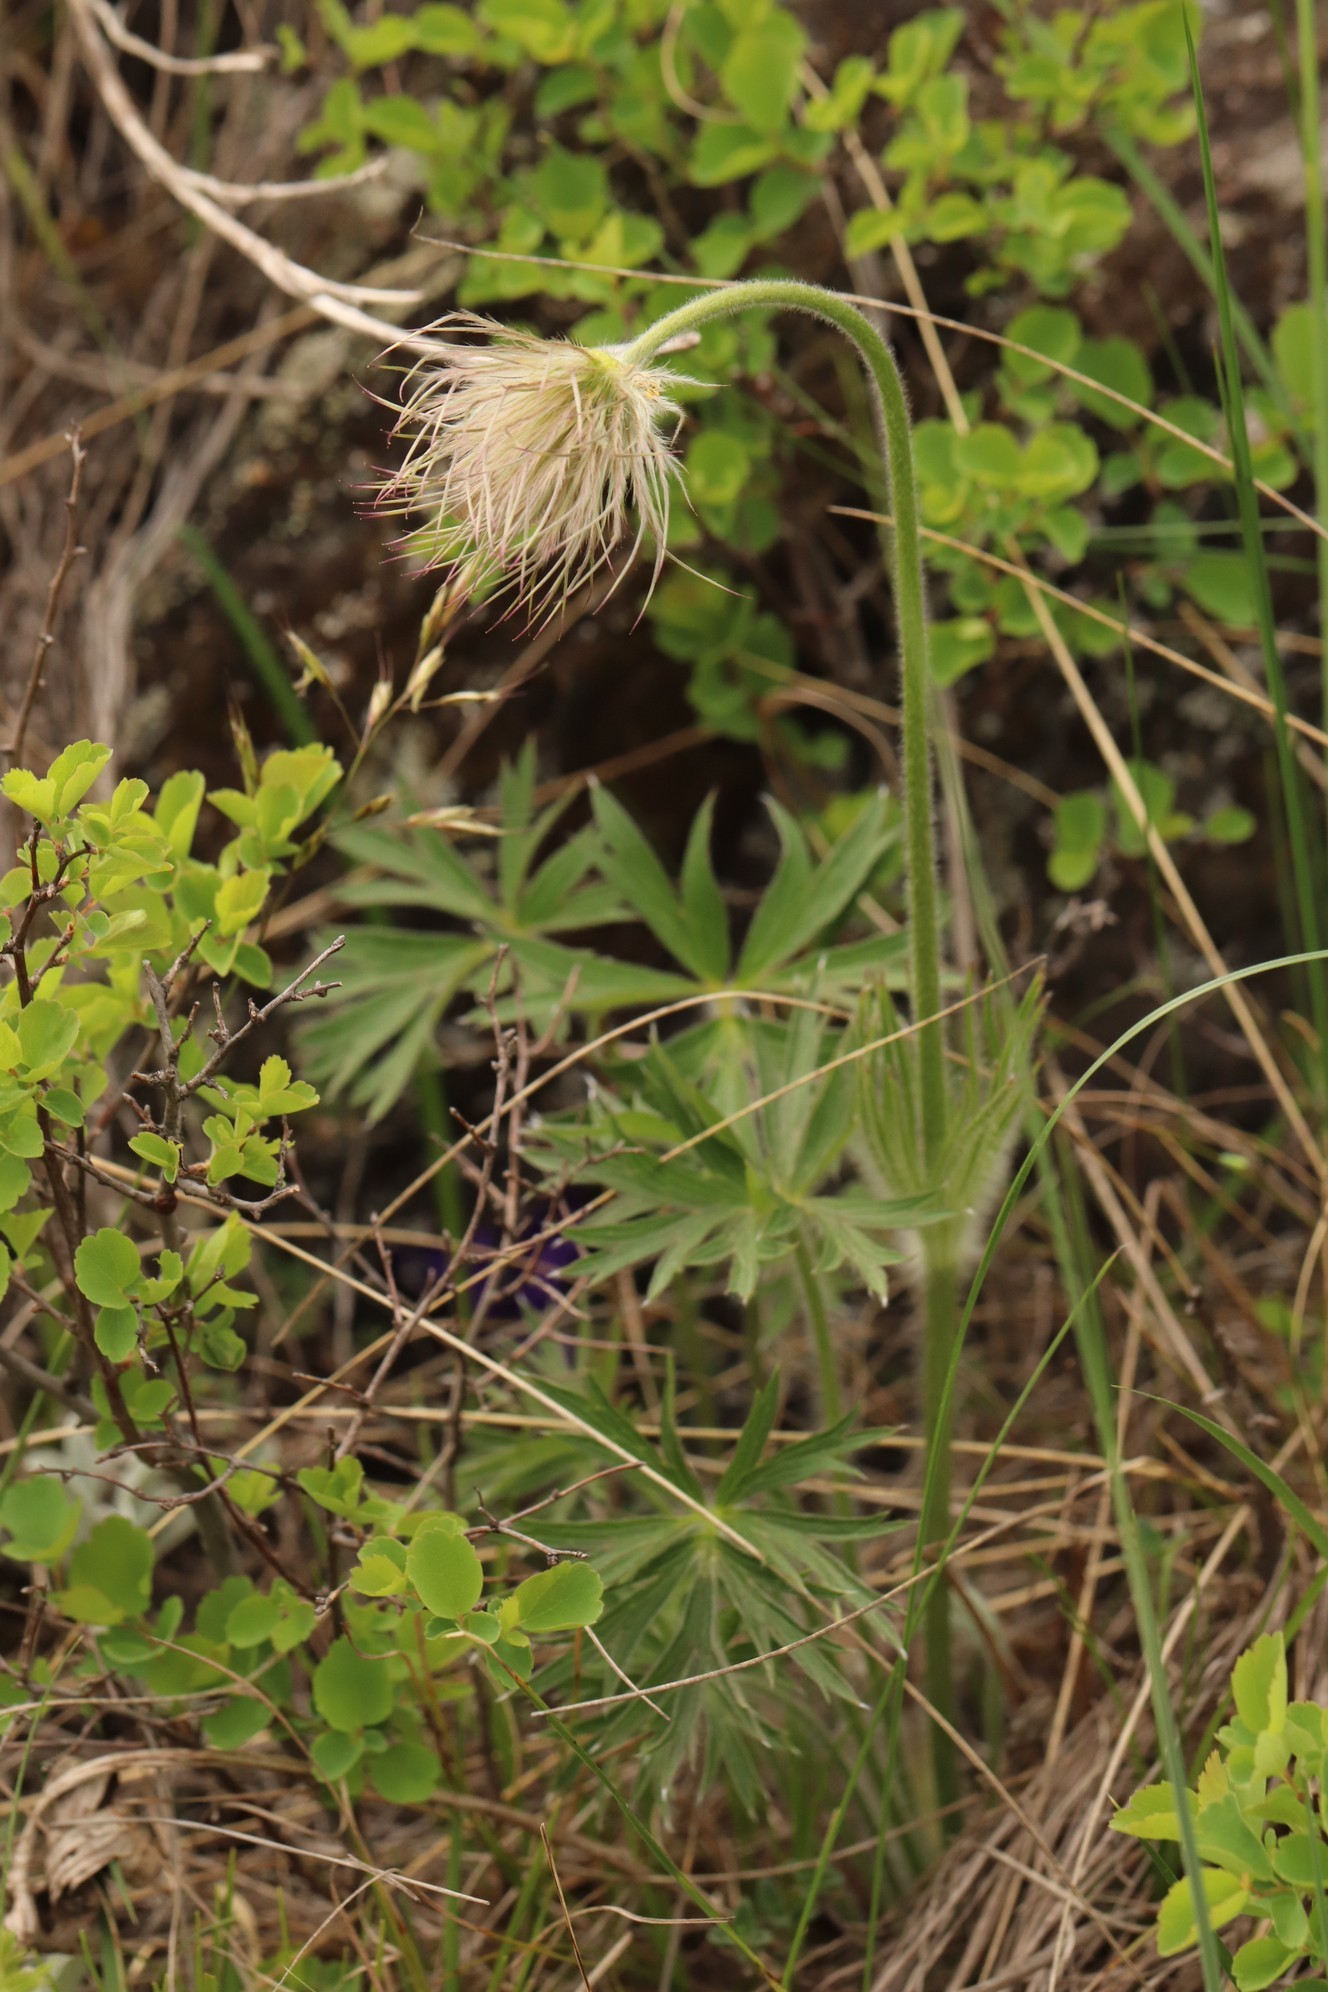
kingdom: Plantae
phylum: Tracheophyta
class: Magnoliopsida
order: Ranunculales
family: Ranunculaceae
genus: Pulsatilla
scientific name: Pulsatilla patens
